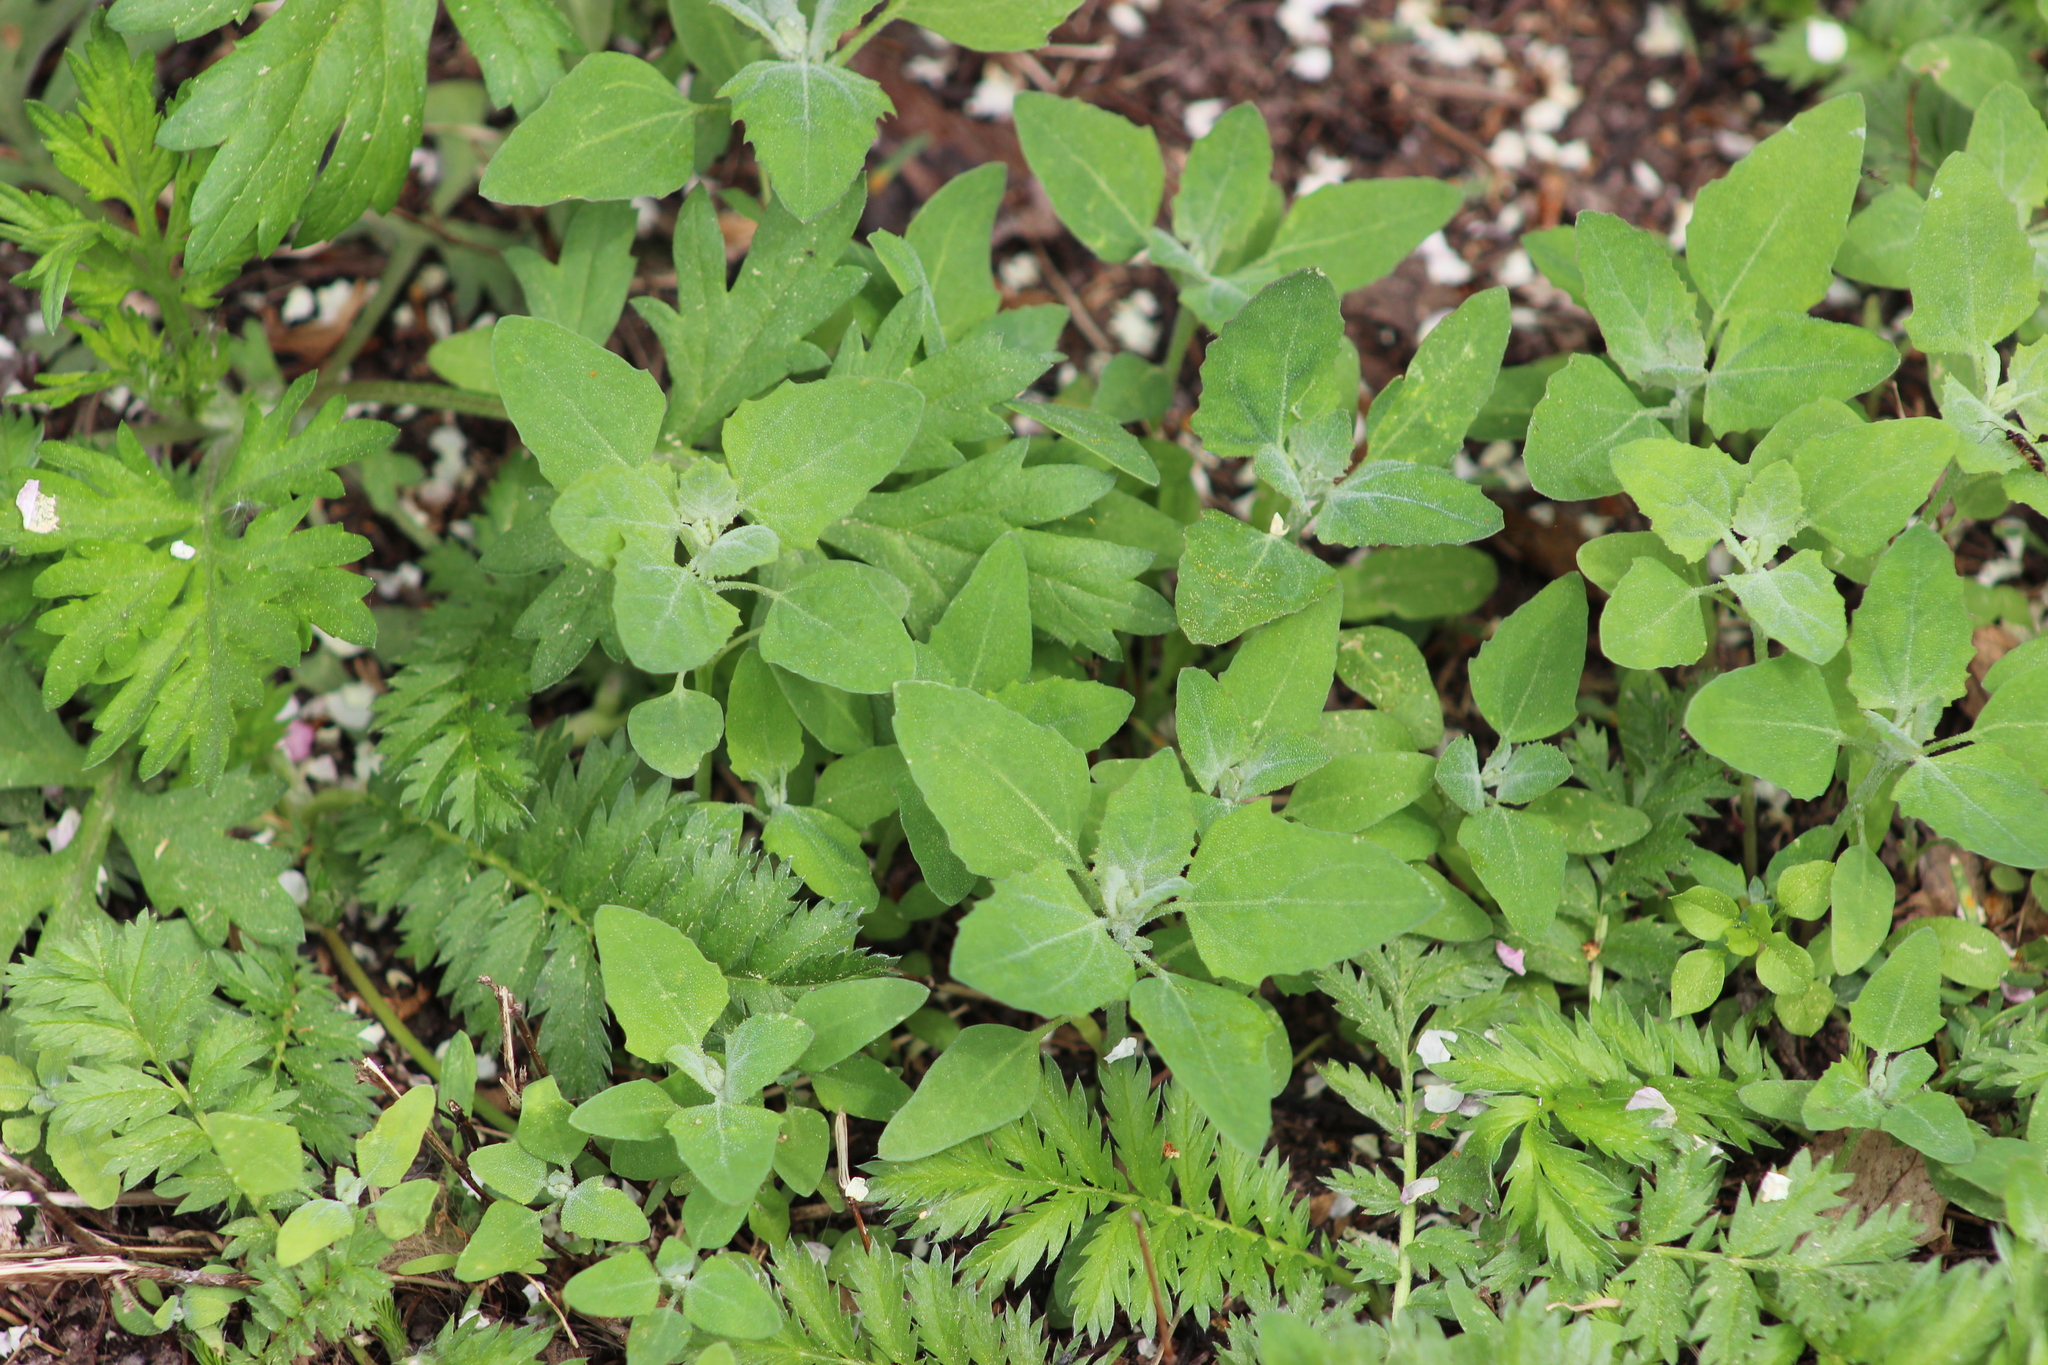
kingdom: Plantae
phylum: Tracheophyta
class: Magnoliopsida
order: Caryophyllales
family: Amaranthaceae
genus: Chenopodium
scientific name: Chenopodium album
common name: Fat-hen
